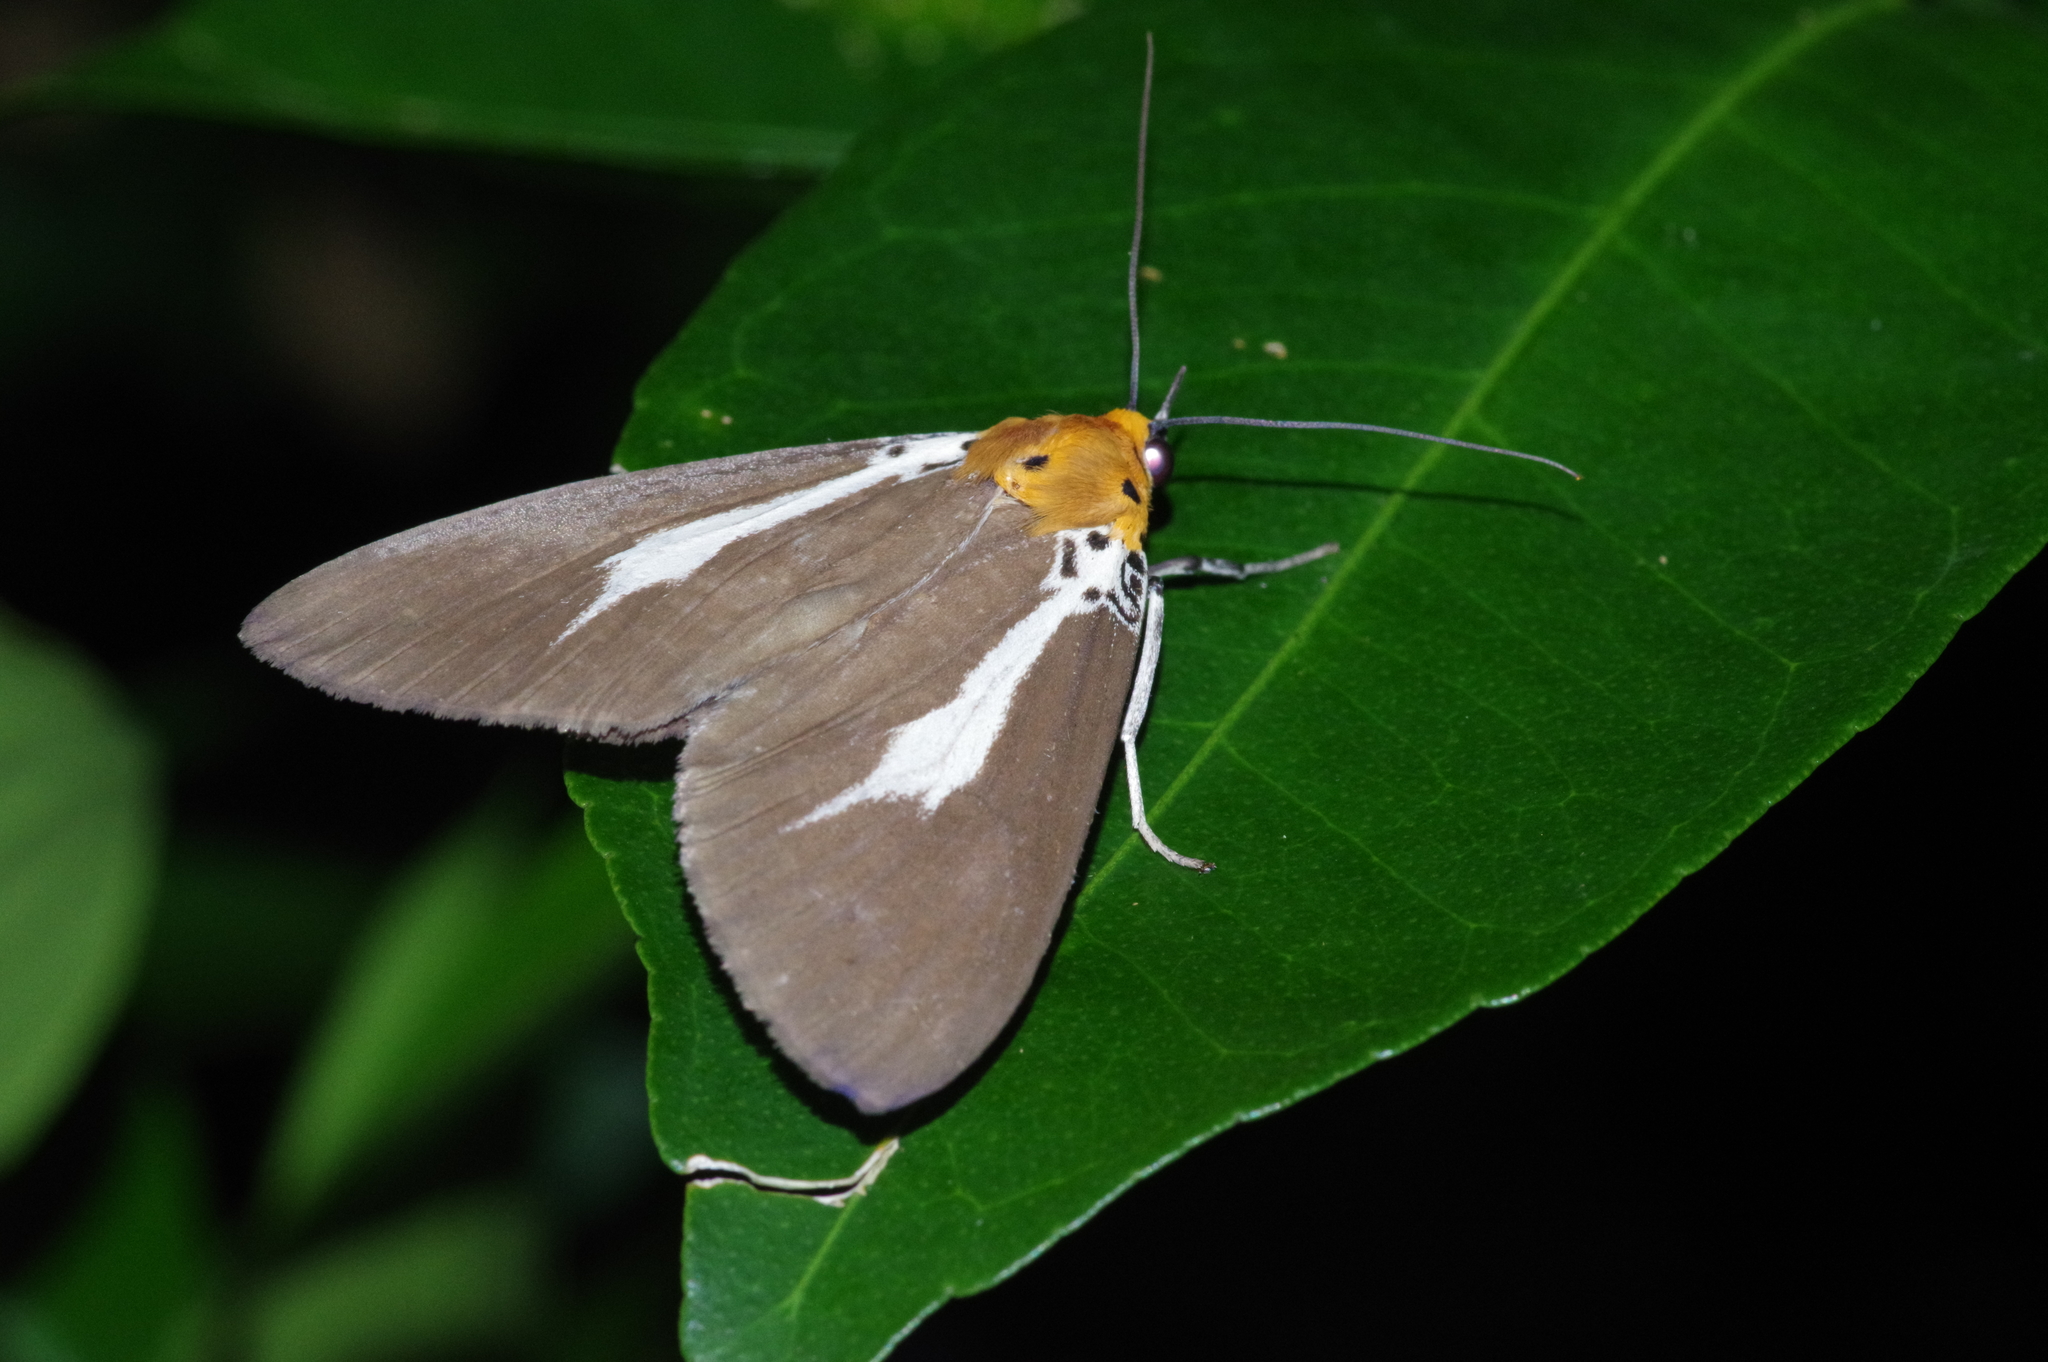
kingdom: Animalia
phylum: Arthropoda
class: Insecta
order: Lepidoptera
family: Erebidae
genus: Asota
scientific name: Asota heliconia
